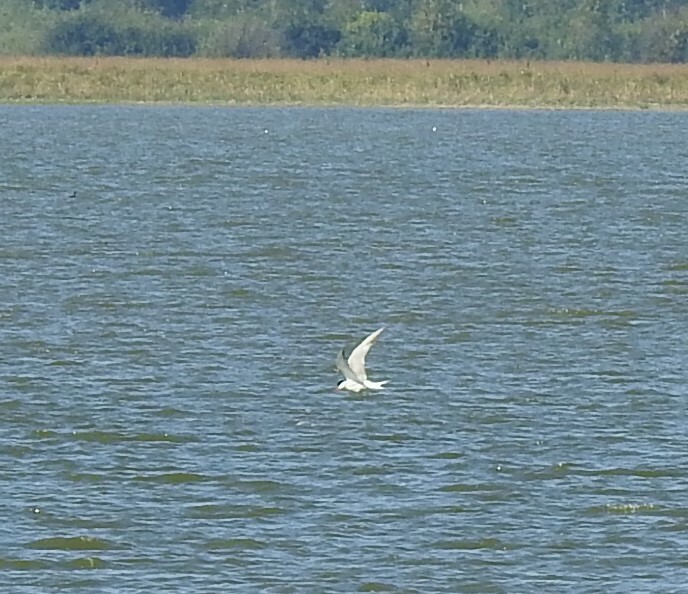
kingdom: Animalia
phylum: Chordata
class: Aves
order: Charadriiformes
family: Laridae
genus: Sterna
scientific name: Sterna hirundo
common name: Common tern
